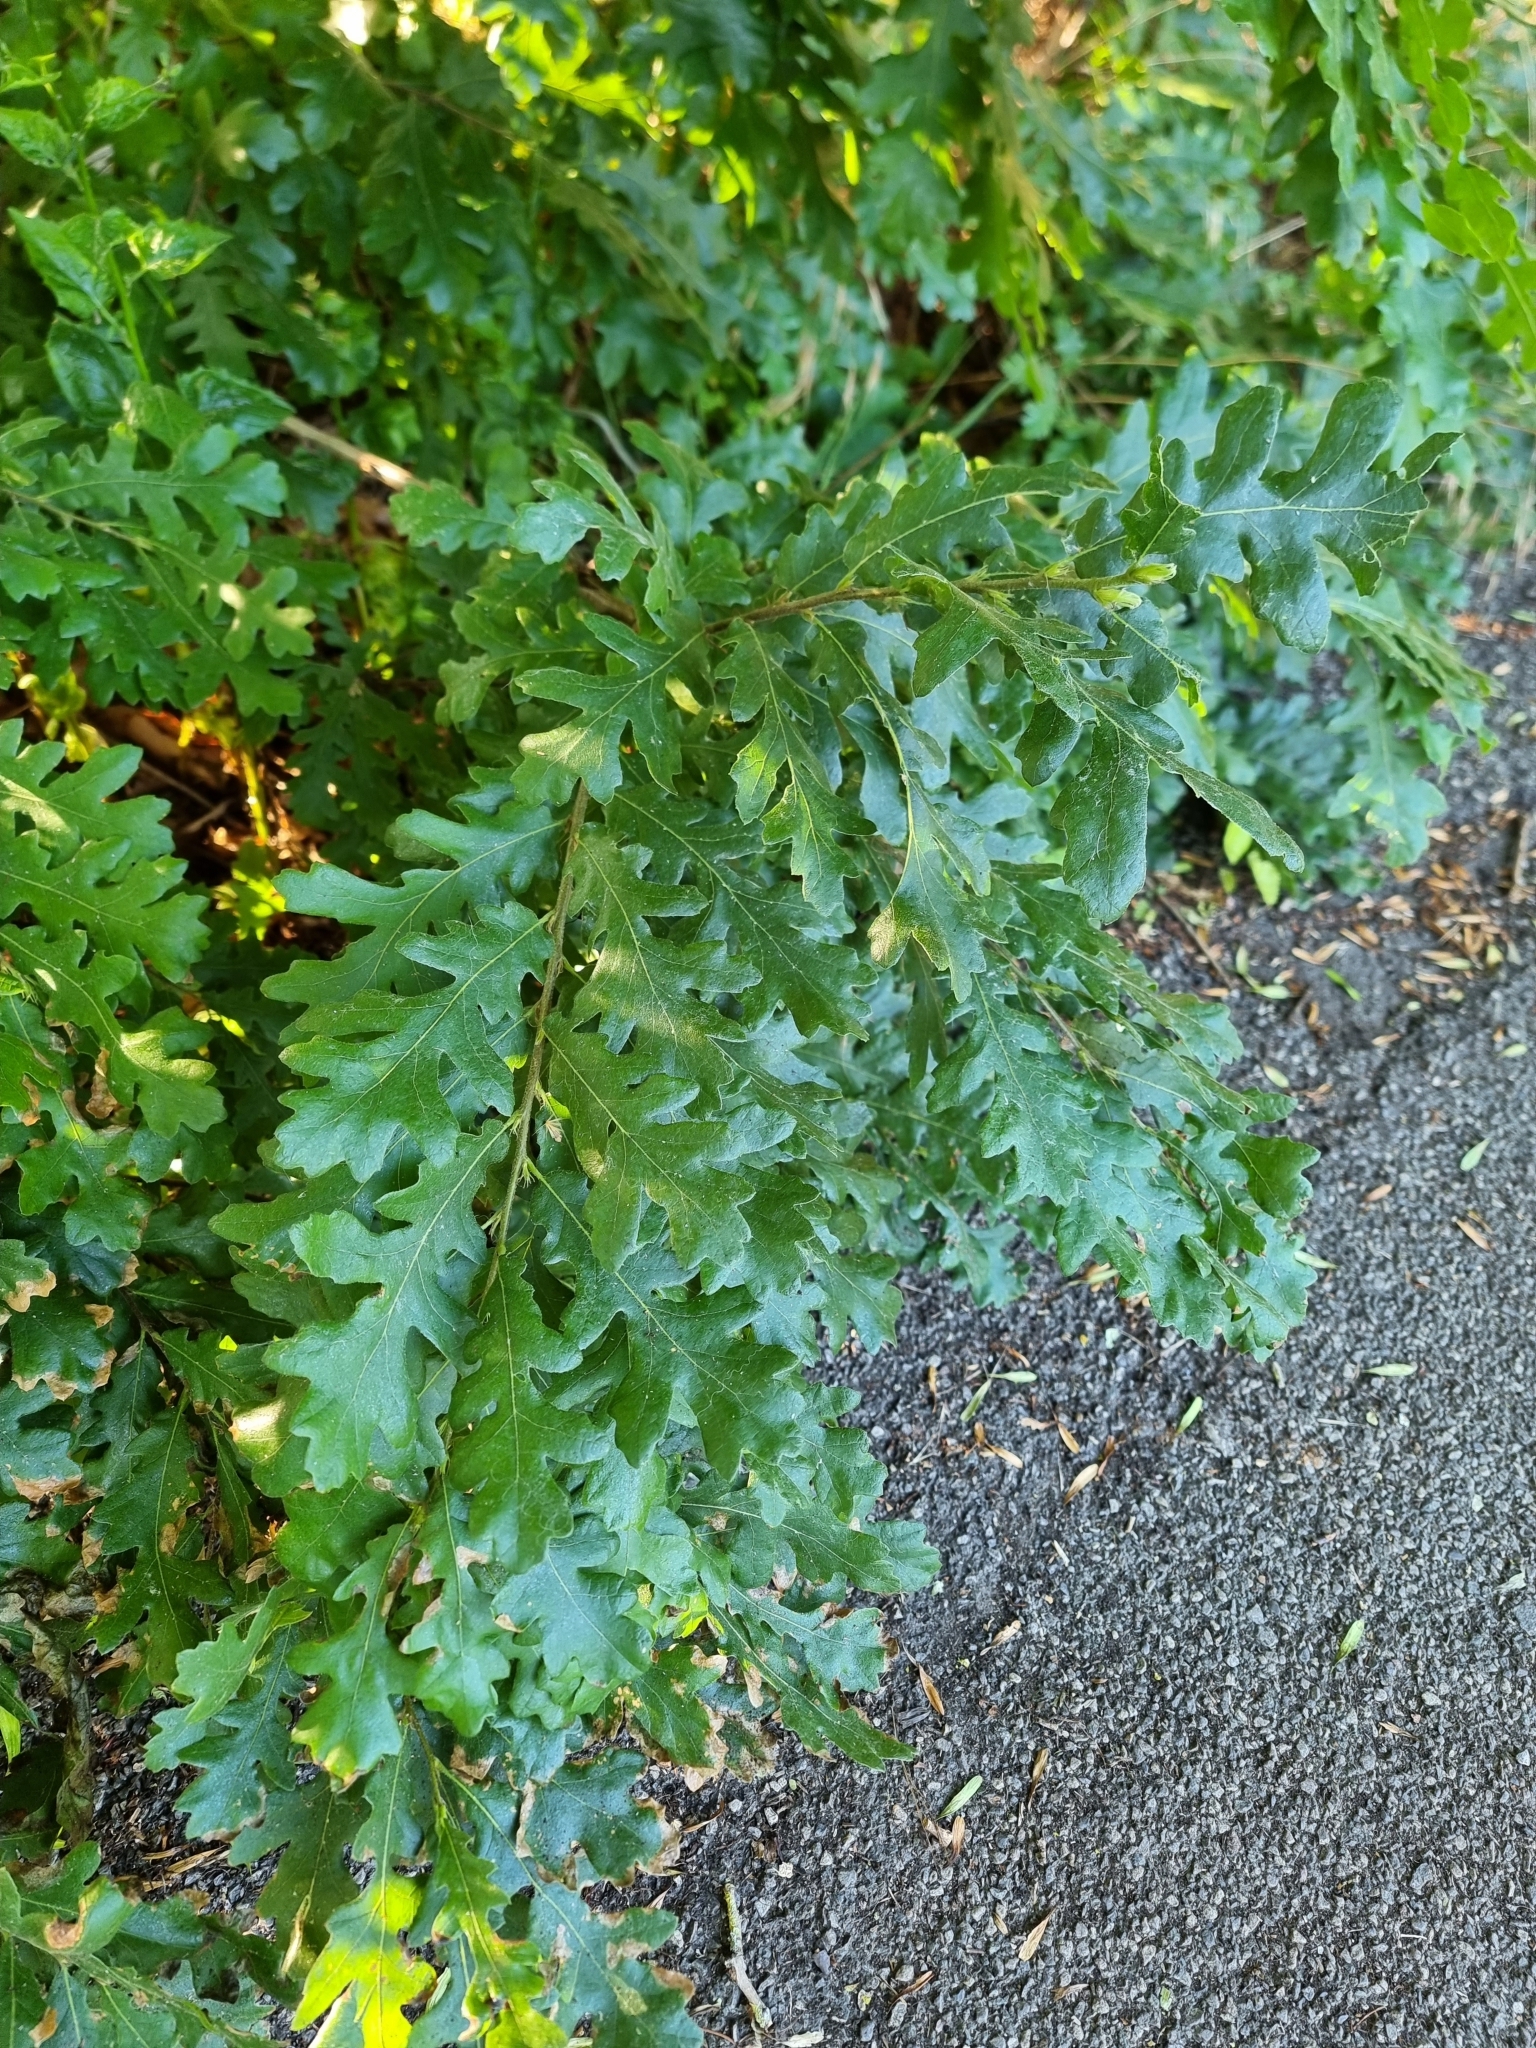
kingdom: Plantae
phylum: Tracheophyta
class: Magnoliopsida
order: Fagales
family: Fagaceae
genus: Quercus
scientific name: Quercus cerris
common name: Turkey oak
